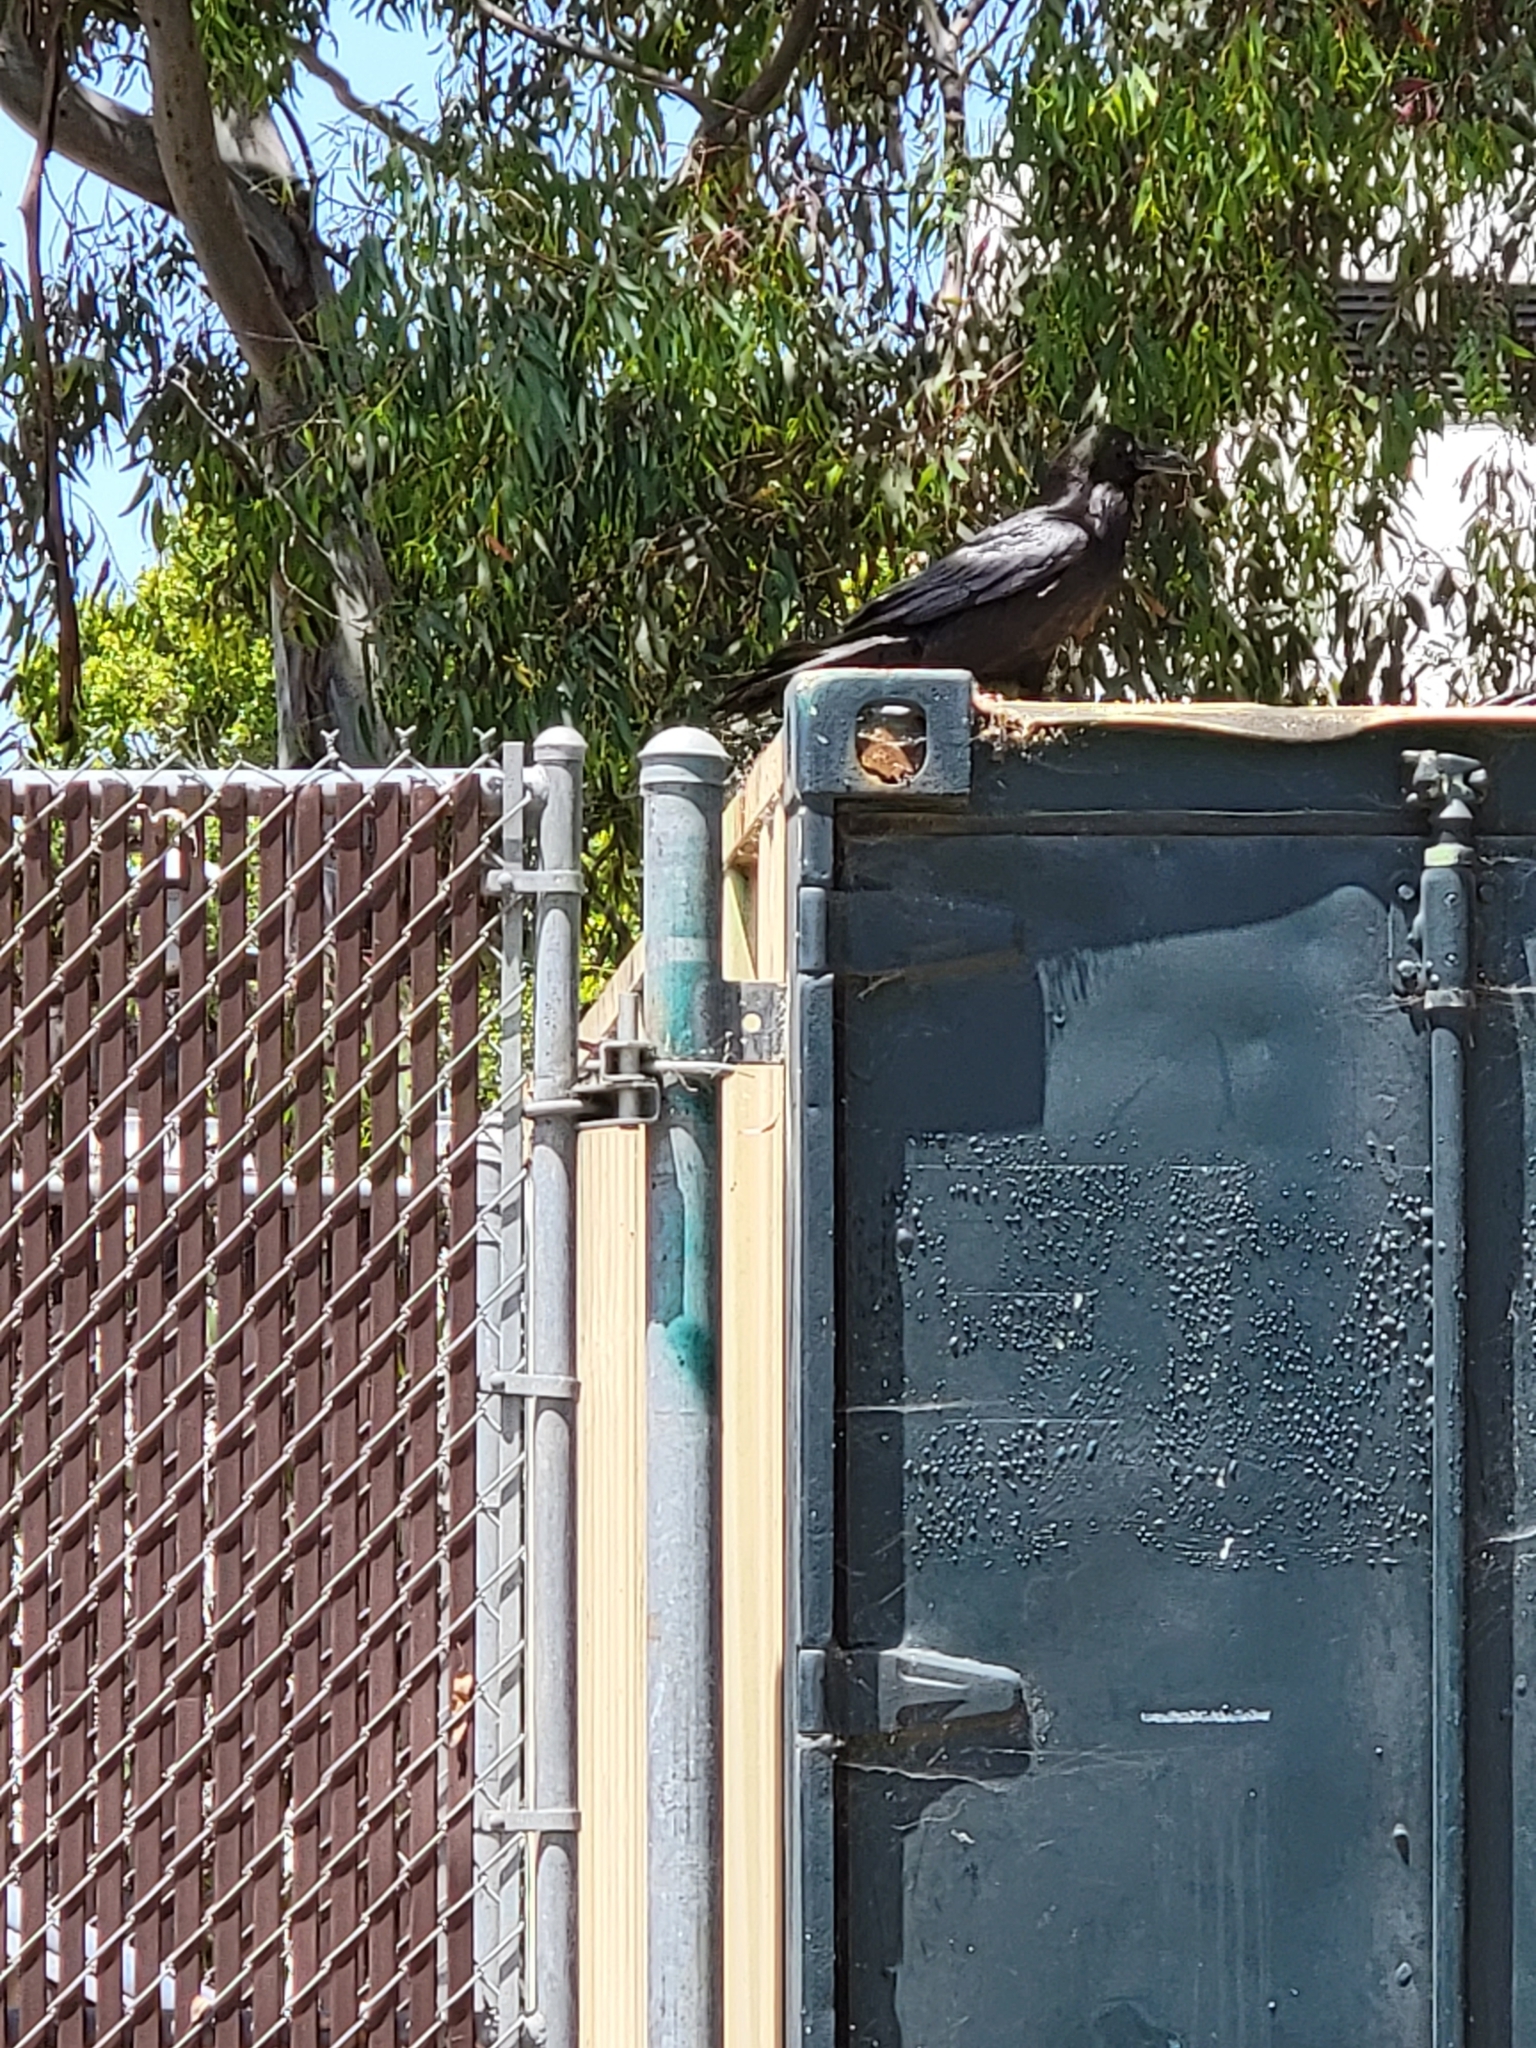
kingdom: Animalia
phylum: Chordata
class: Aves
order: Passeriformes
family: Corvidae
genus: Corvus
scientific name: Corvus corax
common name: Common raven
